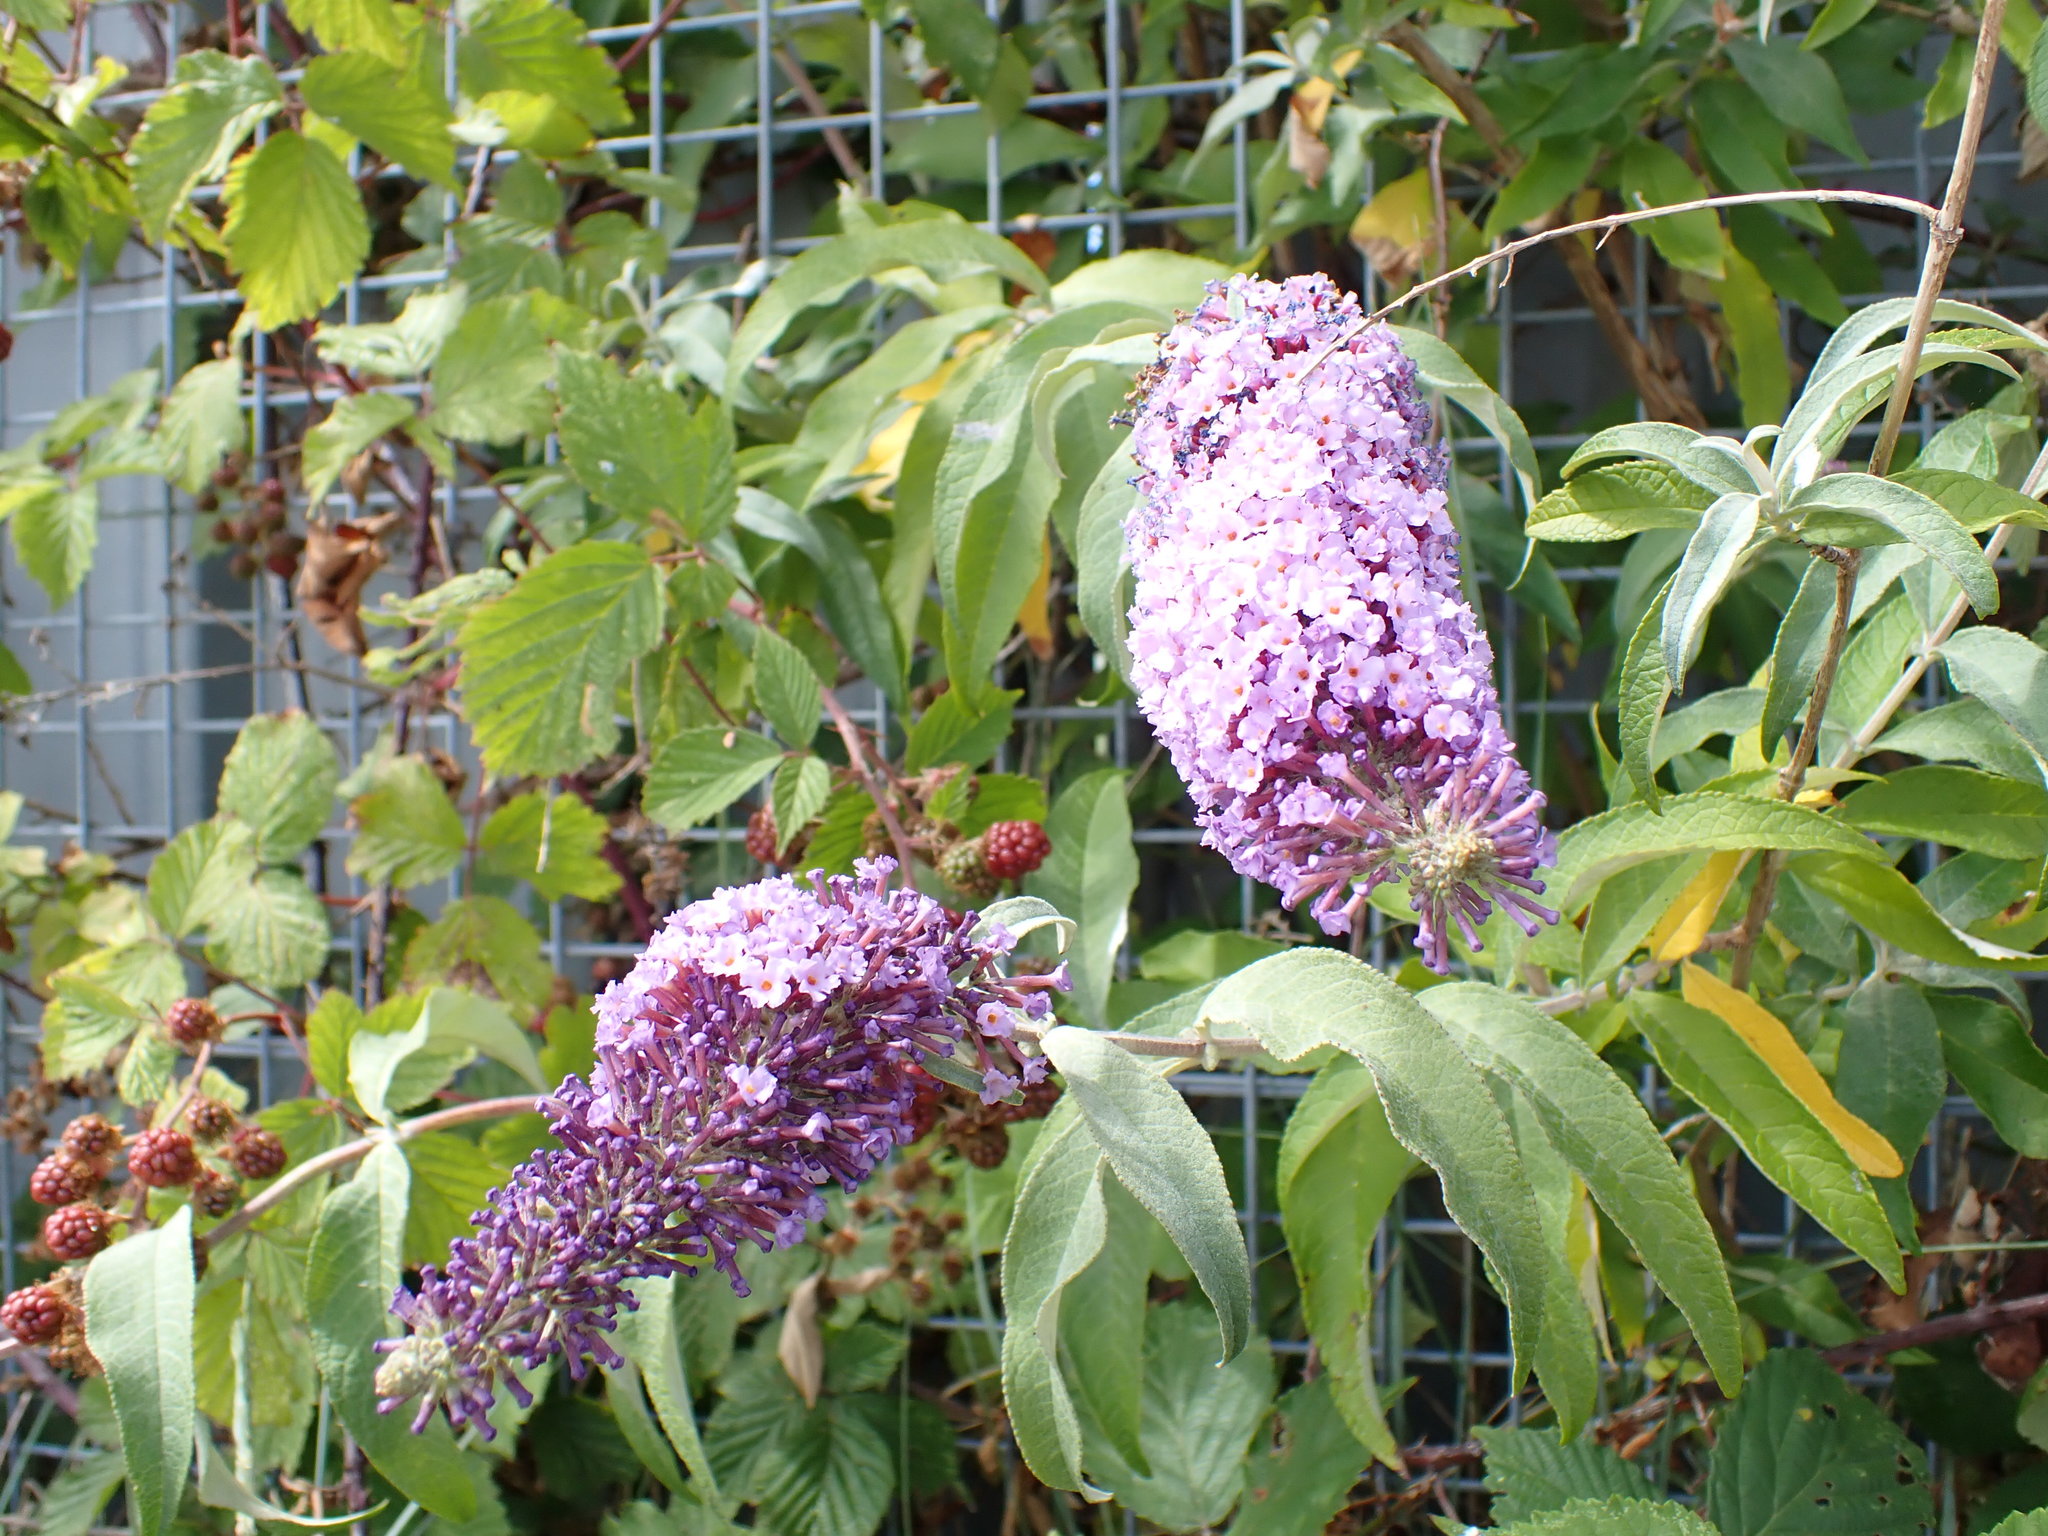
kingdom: Plantae
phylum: Tracheophyta
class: Magnoliopsida
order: Lamiales
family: Scrophulariaceae
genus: Buddleja
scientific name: Buddleja davidii
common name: Butterfly-bush
